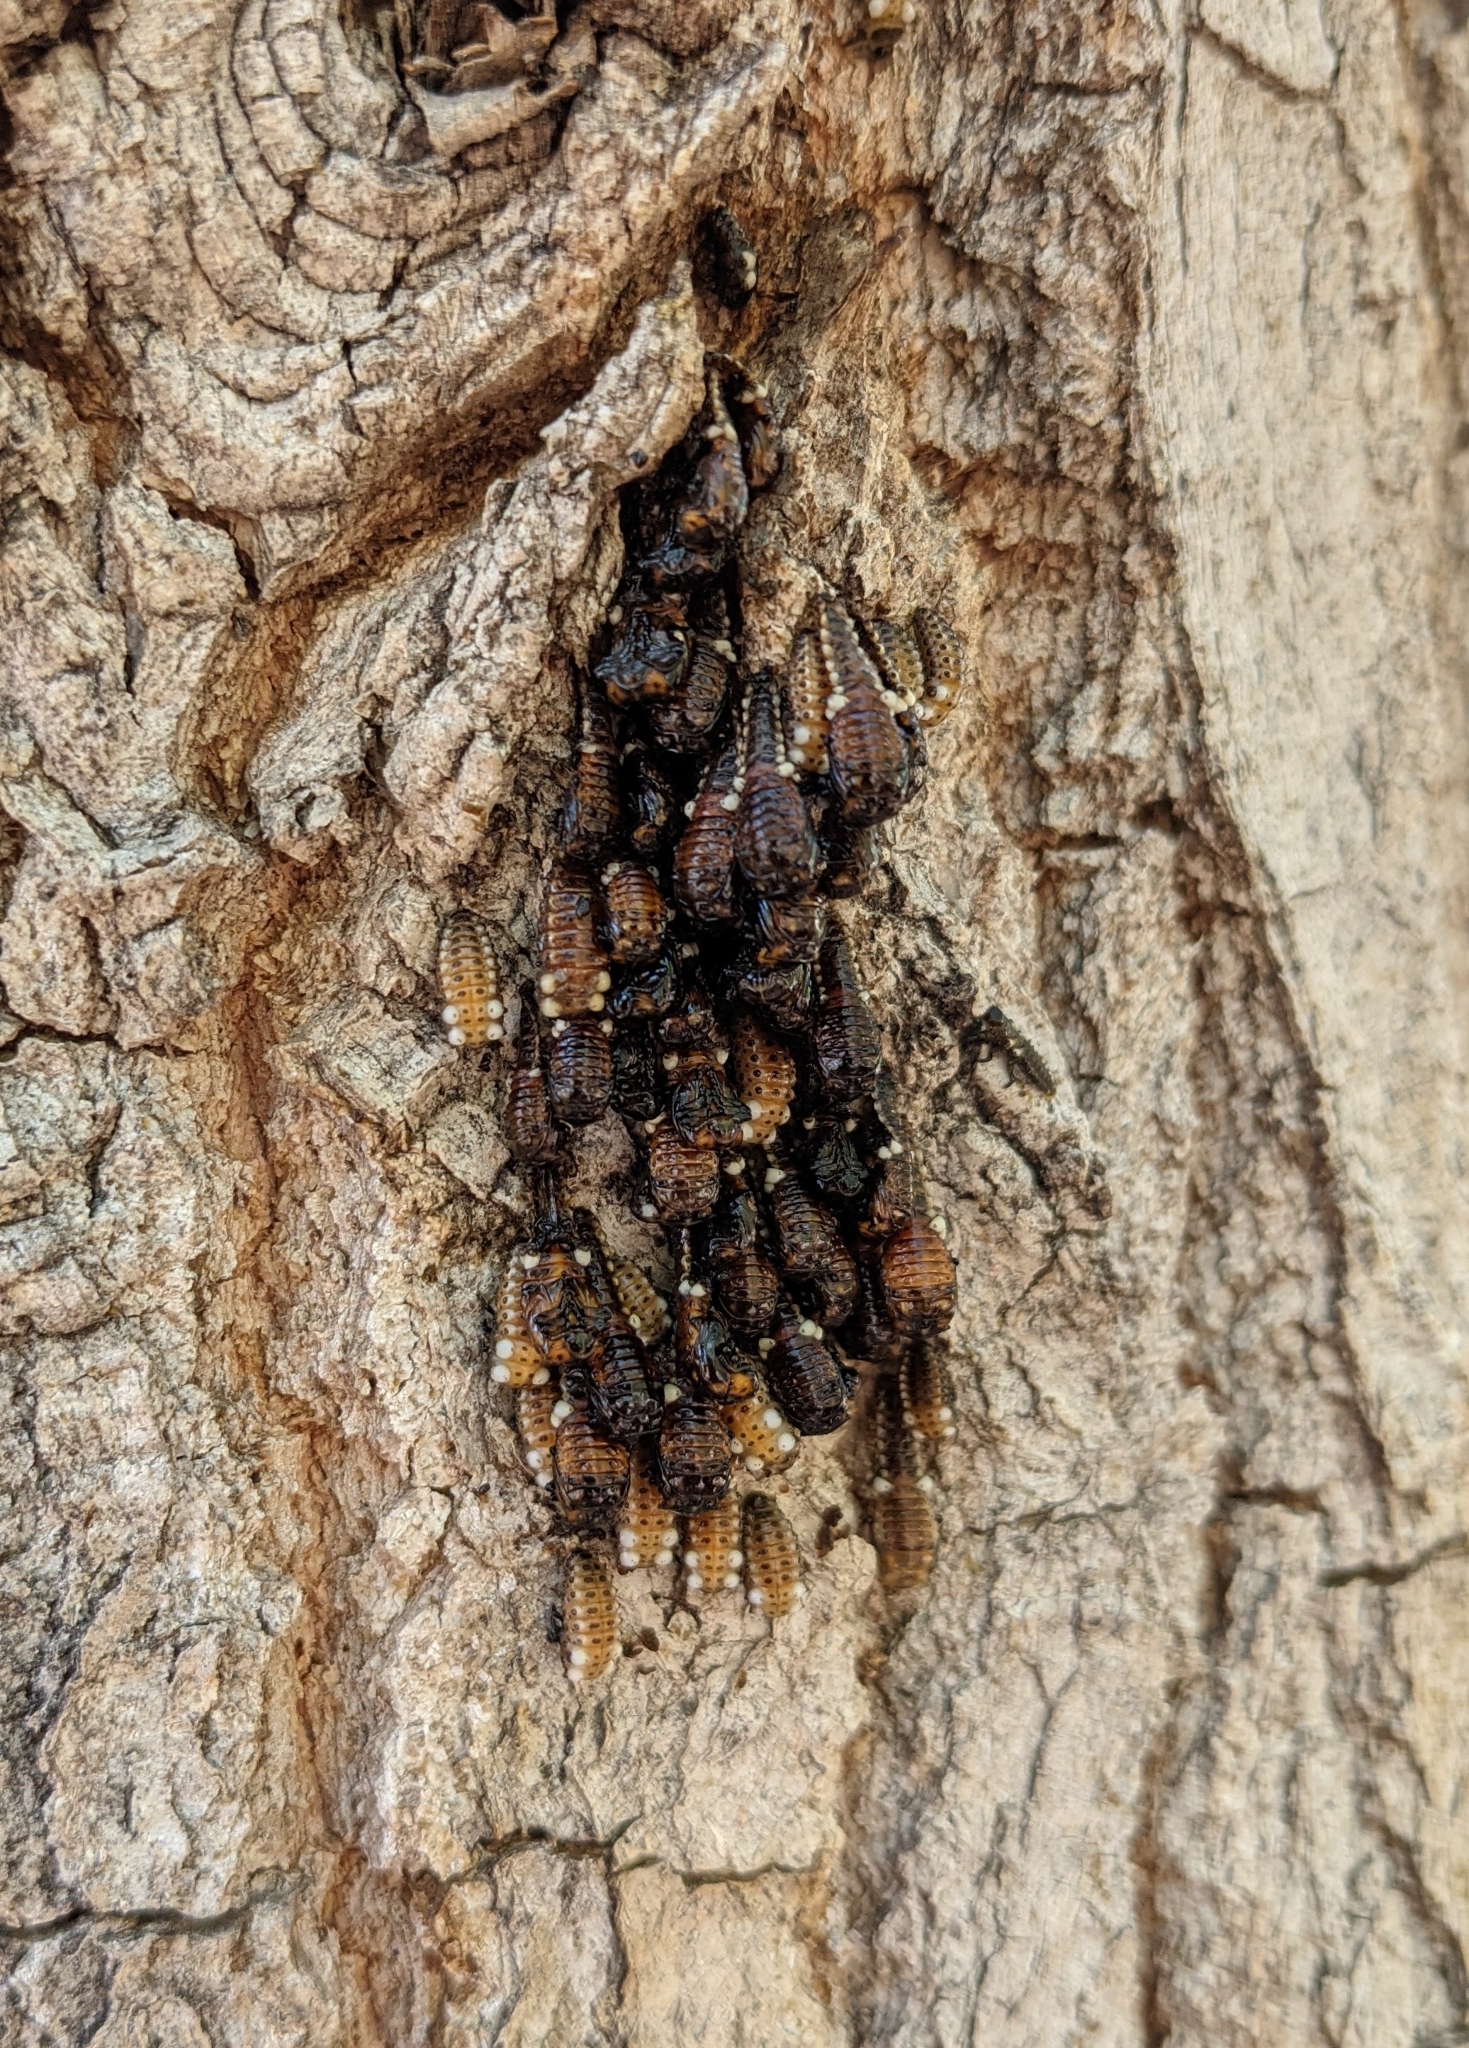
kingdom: Animalia
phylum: Arthropoda
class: Insecta
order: Coleoptera
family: Chrysomelidae
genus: Aethiopocassis
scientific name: Aethiopocassis scripta
